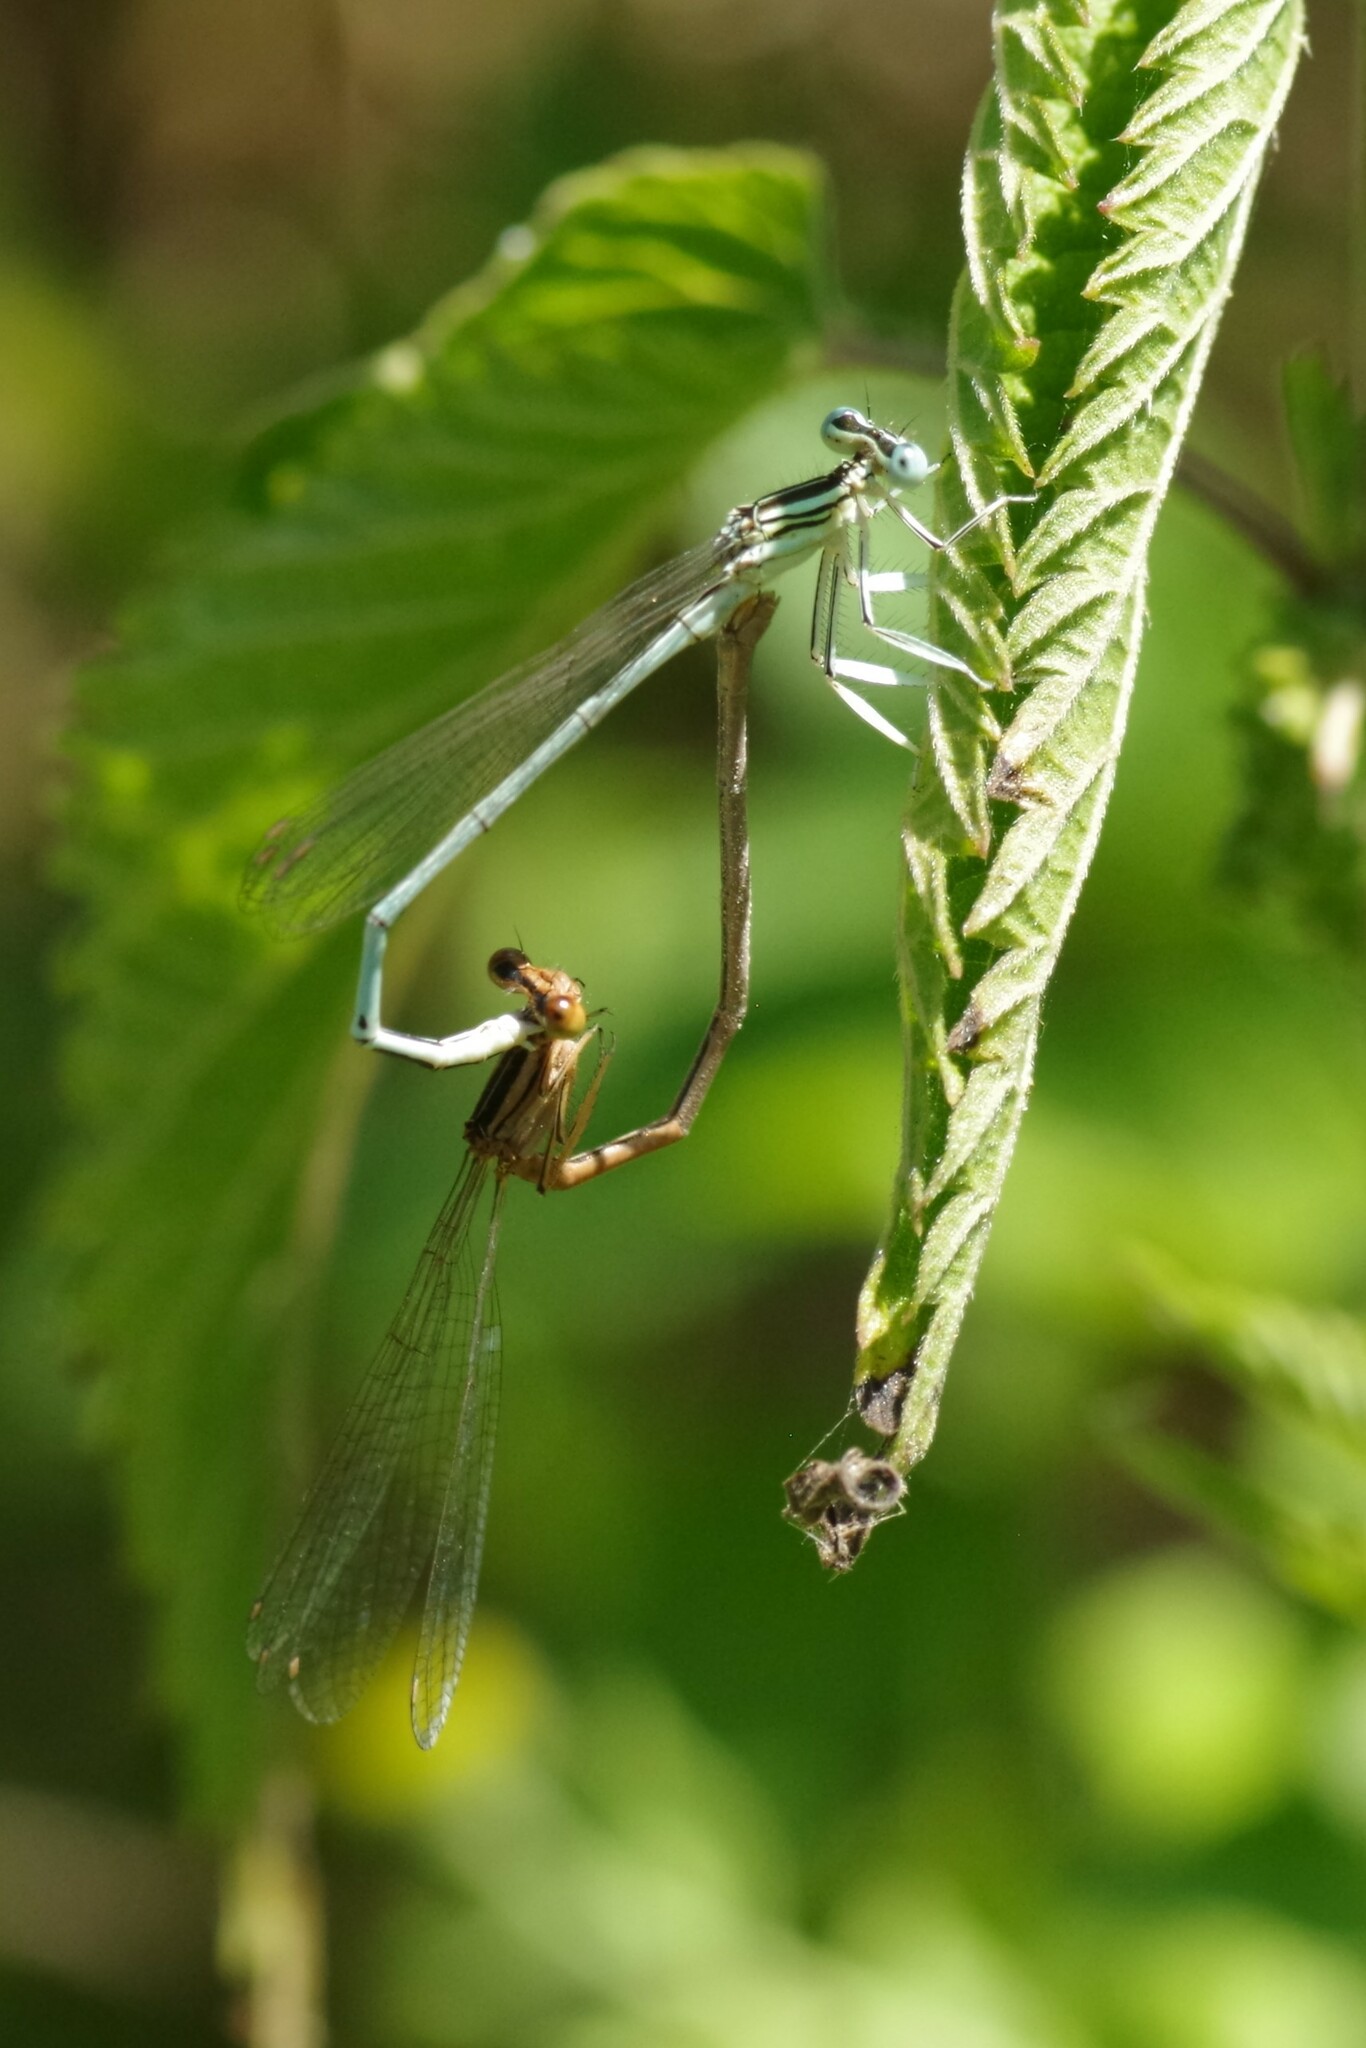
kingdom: Animalia
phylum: Arthropoda
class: Insecta
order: Odonata
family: Platycnemididae
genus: Platycnemis
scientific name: Platycnemis latipes
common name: White featherleg
